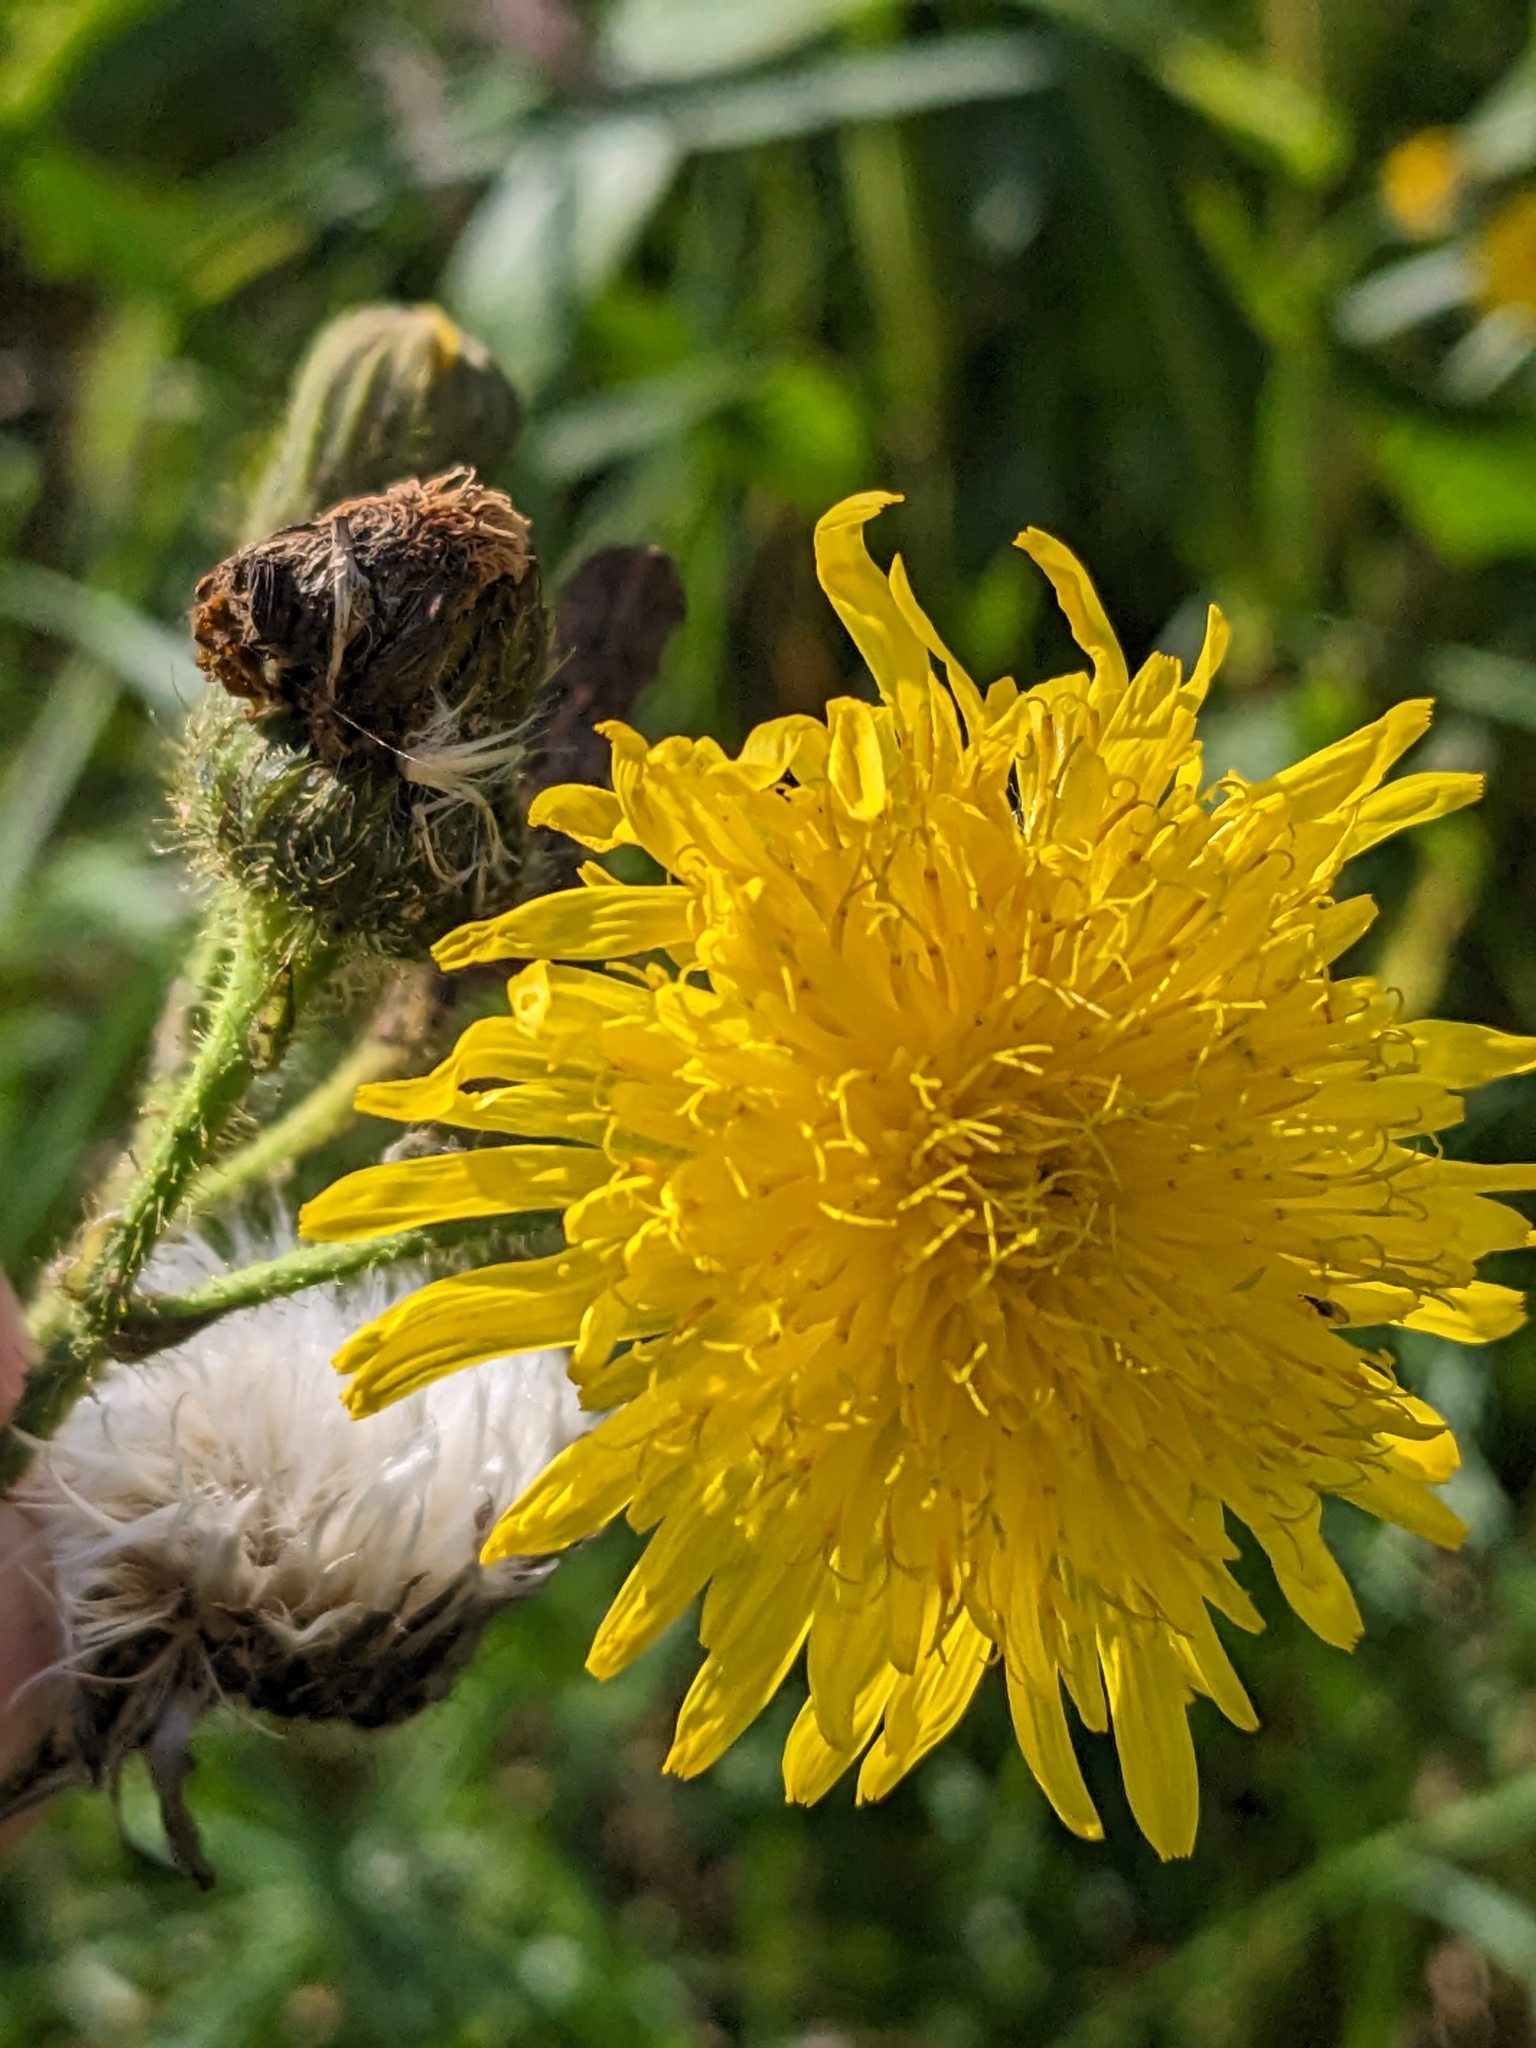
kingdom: Plantae
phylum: Tracheophyta
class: Magnoliopsida
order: Asterales
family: Asteraceae
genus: Sonchus
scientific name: Sonchus arvensis
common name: Perennial sow-thistle
